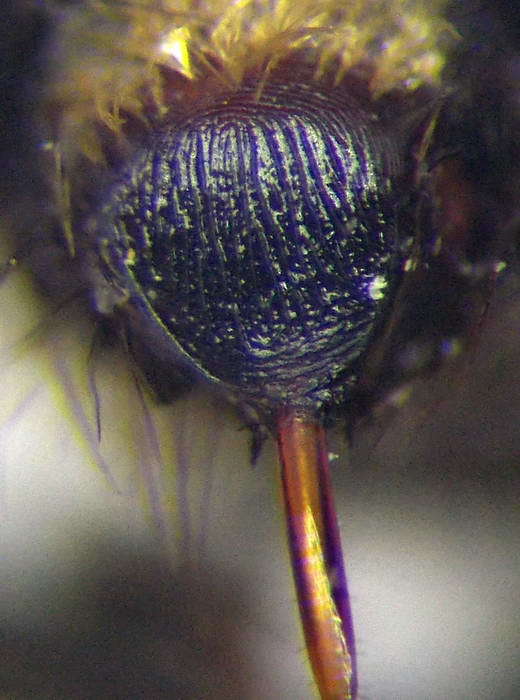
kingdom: Animalia
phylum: Arthropoda
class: Insecta
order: Hymenoptera
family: Mutillidae
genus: Dasylabris
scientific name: Dasylabris maura
